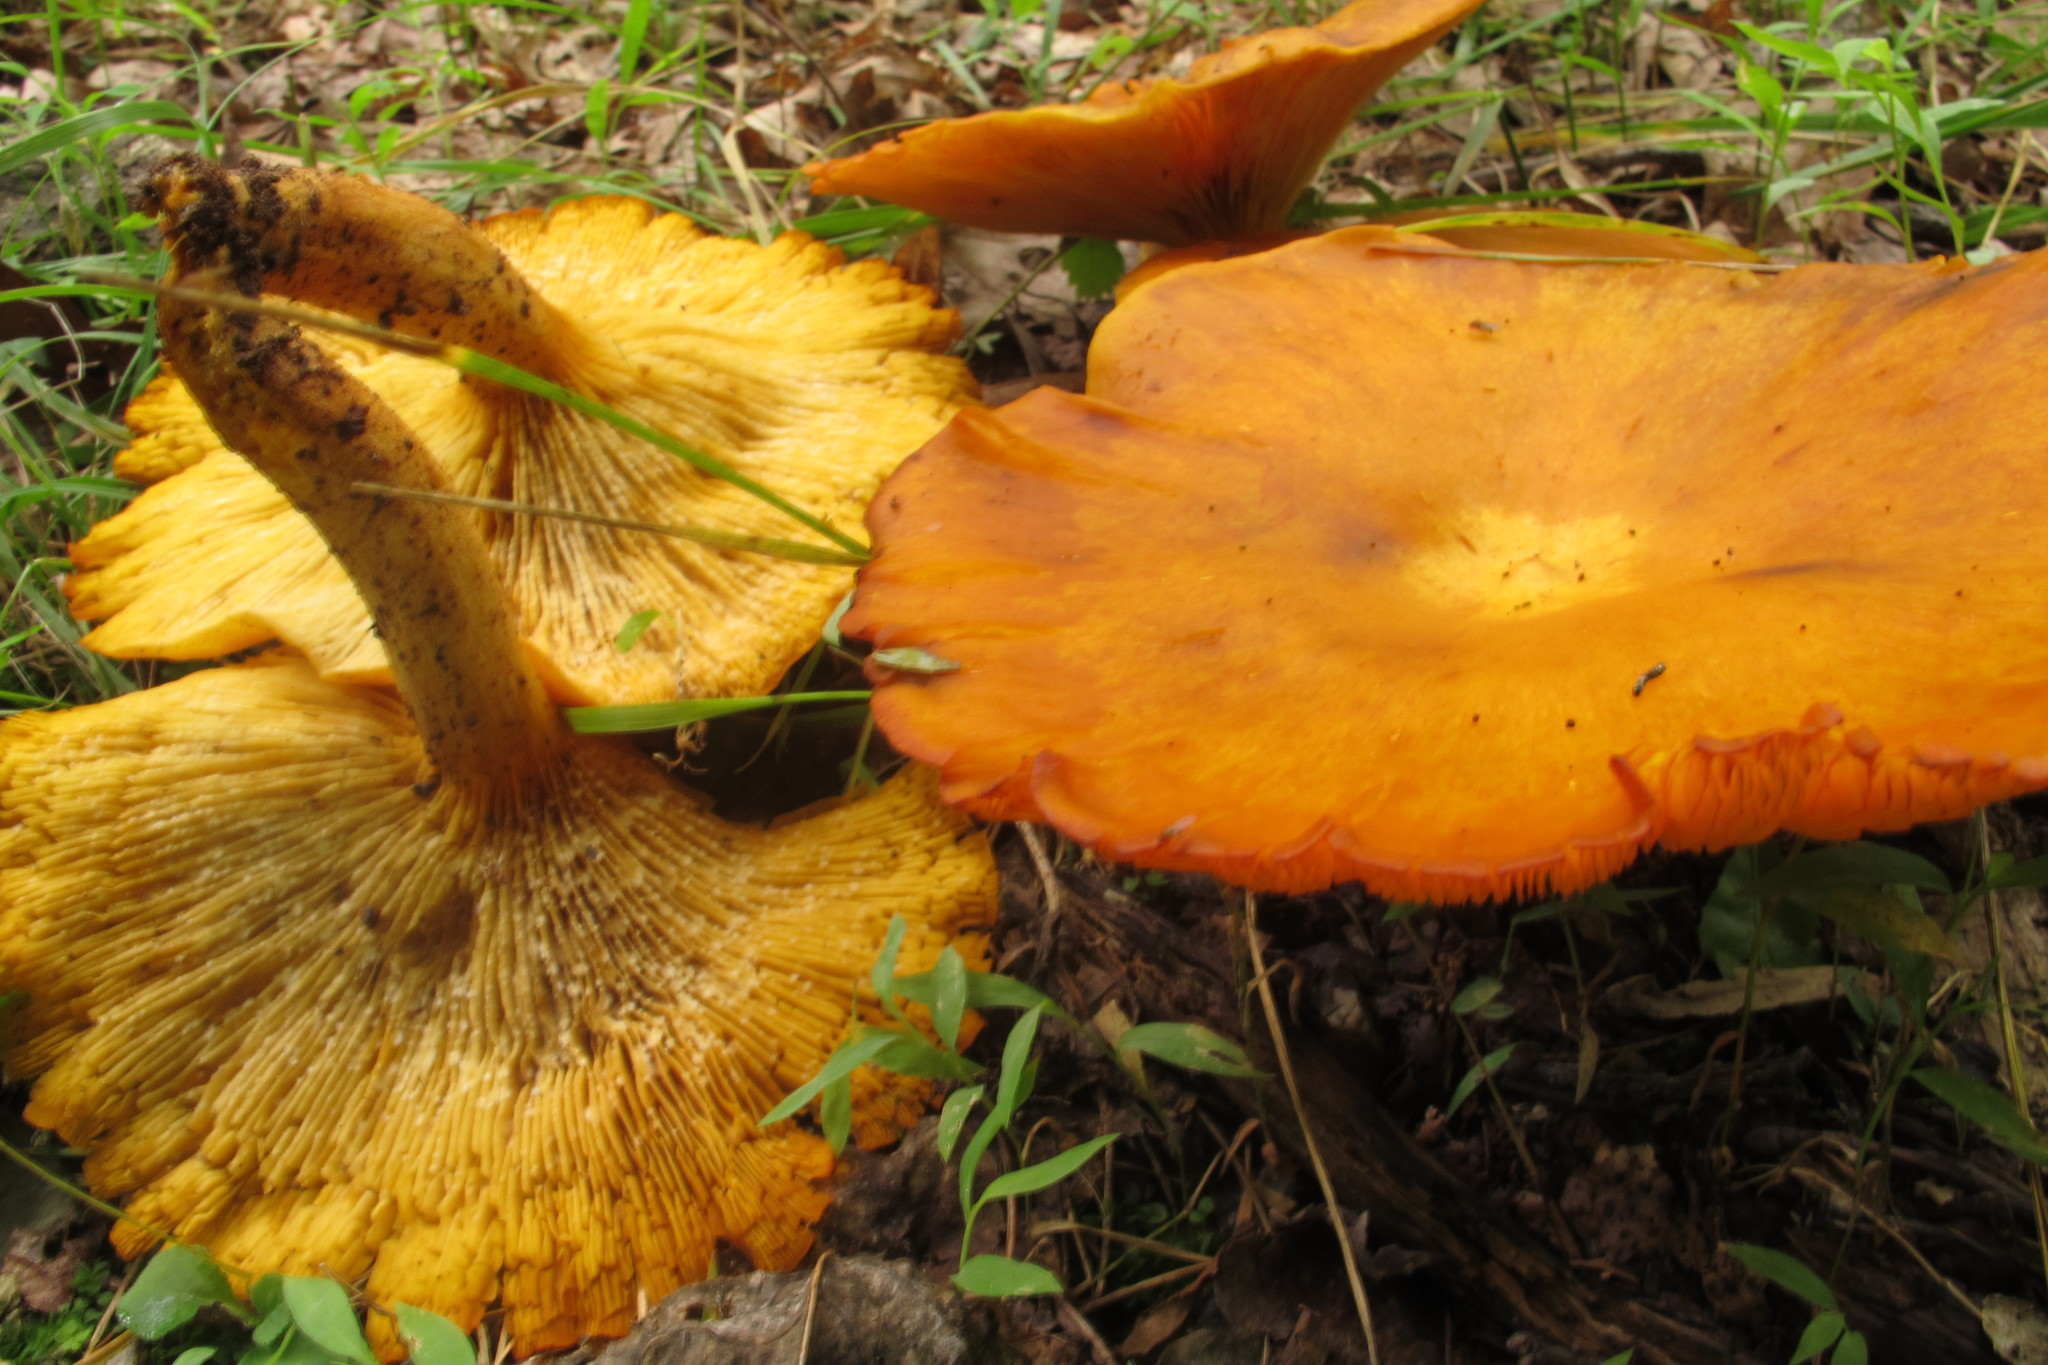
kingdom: Fungi
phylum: Basidiomycota
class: Agaricomycetes
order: Agaricales
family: Omphalotaceae
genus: Omphalotus
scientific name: Omphalotus illudens
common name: Jack o lantern
